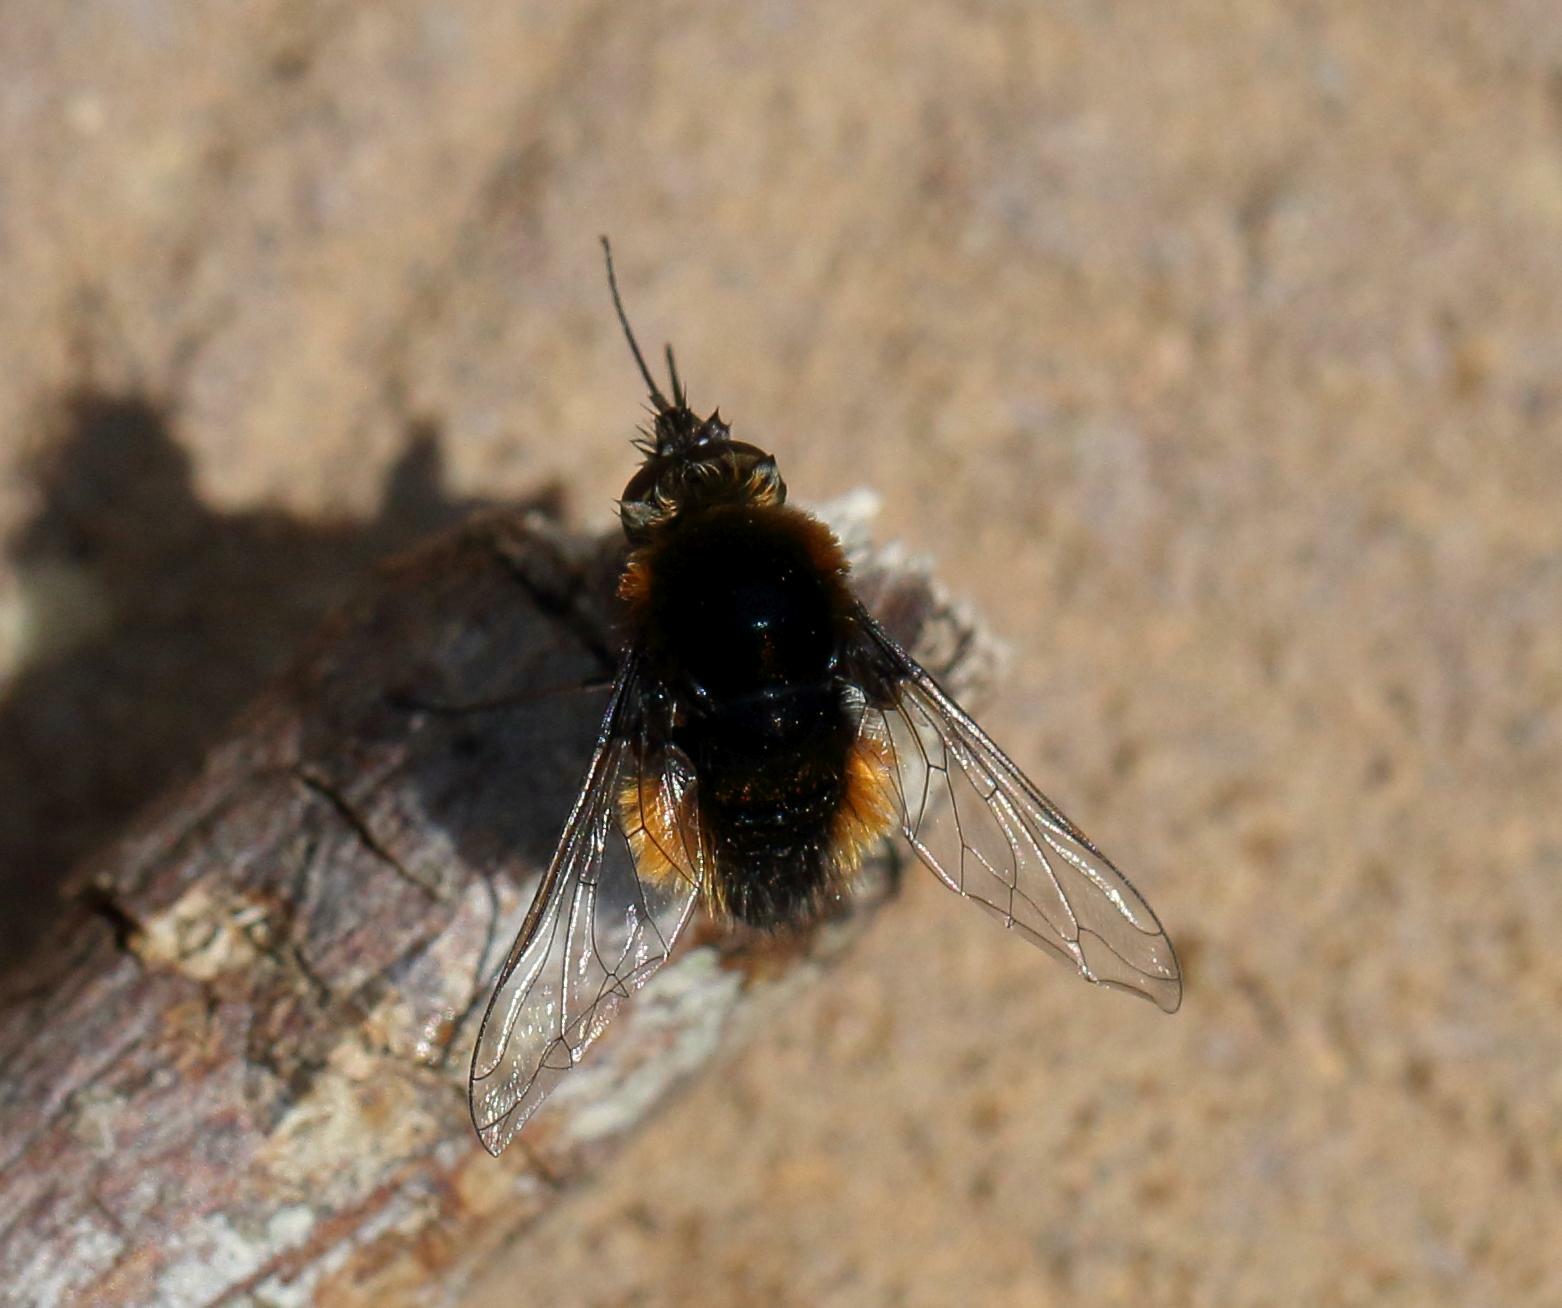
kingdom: Animalia
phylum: Arthropoda
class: Insecta
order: Diptera
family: Bombyliidae
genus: Bombylella
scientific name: Bombylella elegans
